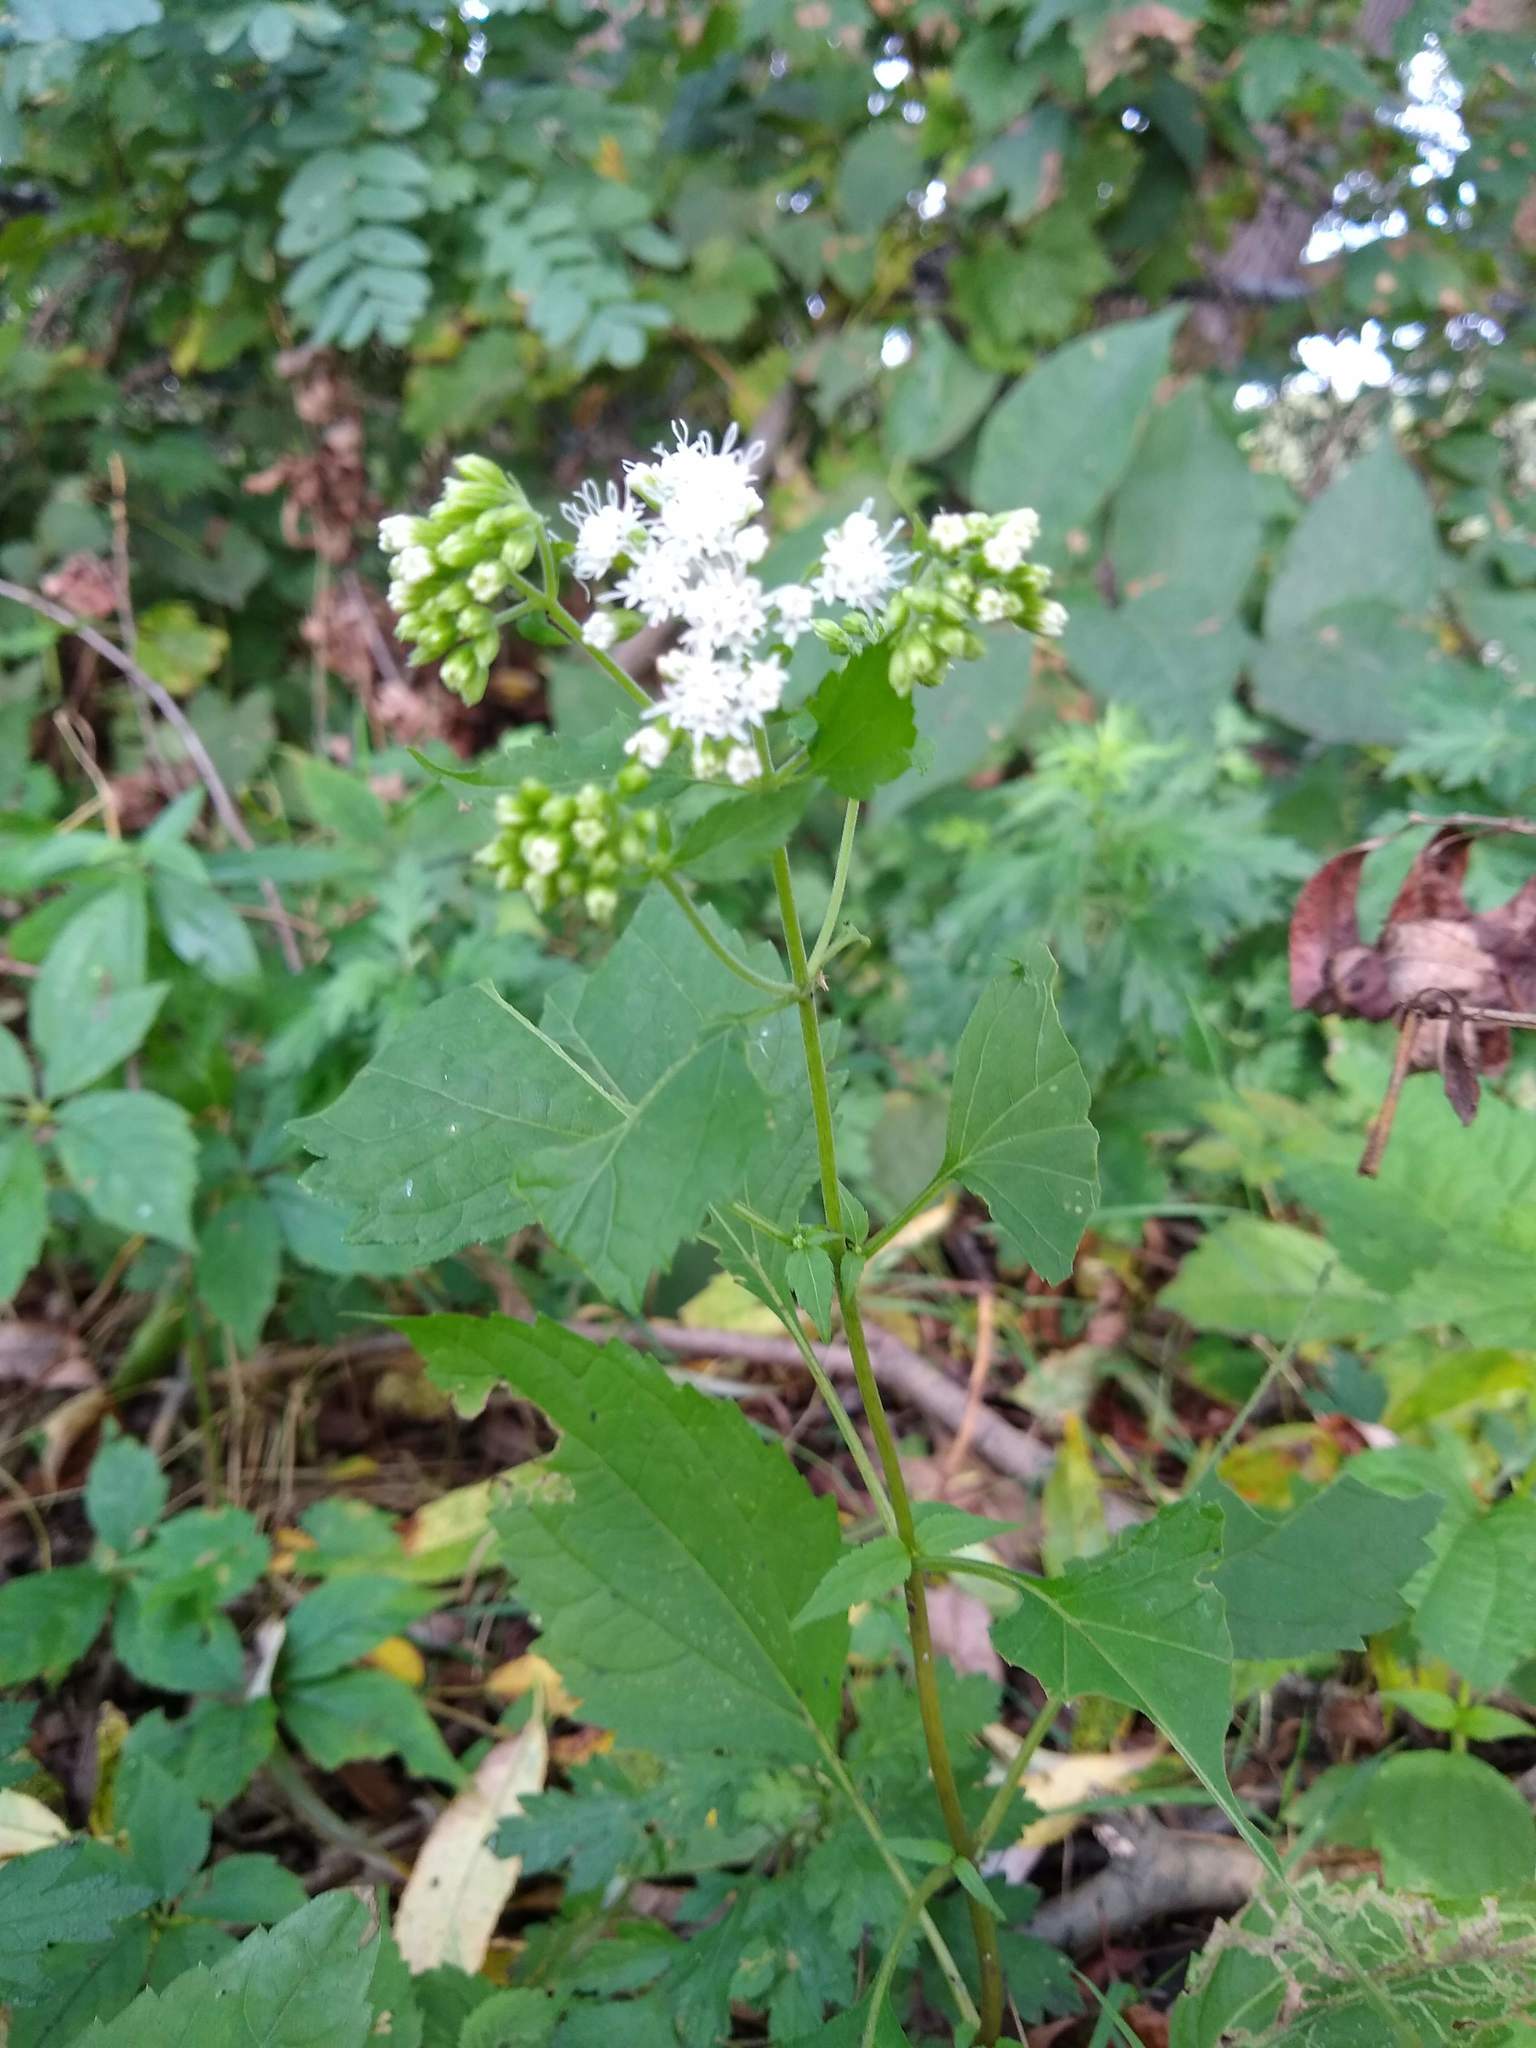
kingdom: Plantae
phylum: Tracheophyta
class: Magnoliopsida
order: Asterales
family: Asteraceae
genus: Ageratina
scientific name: Ageratina altissima
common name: White snakeroot
